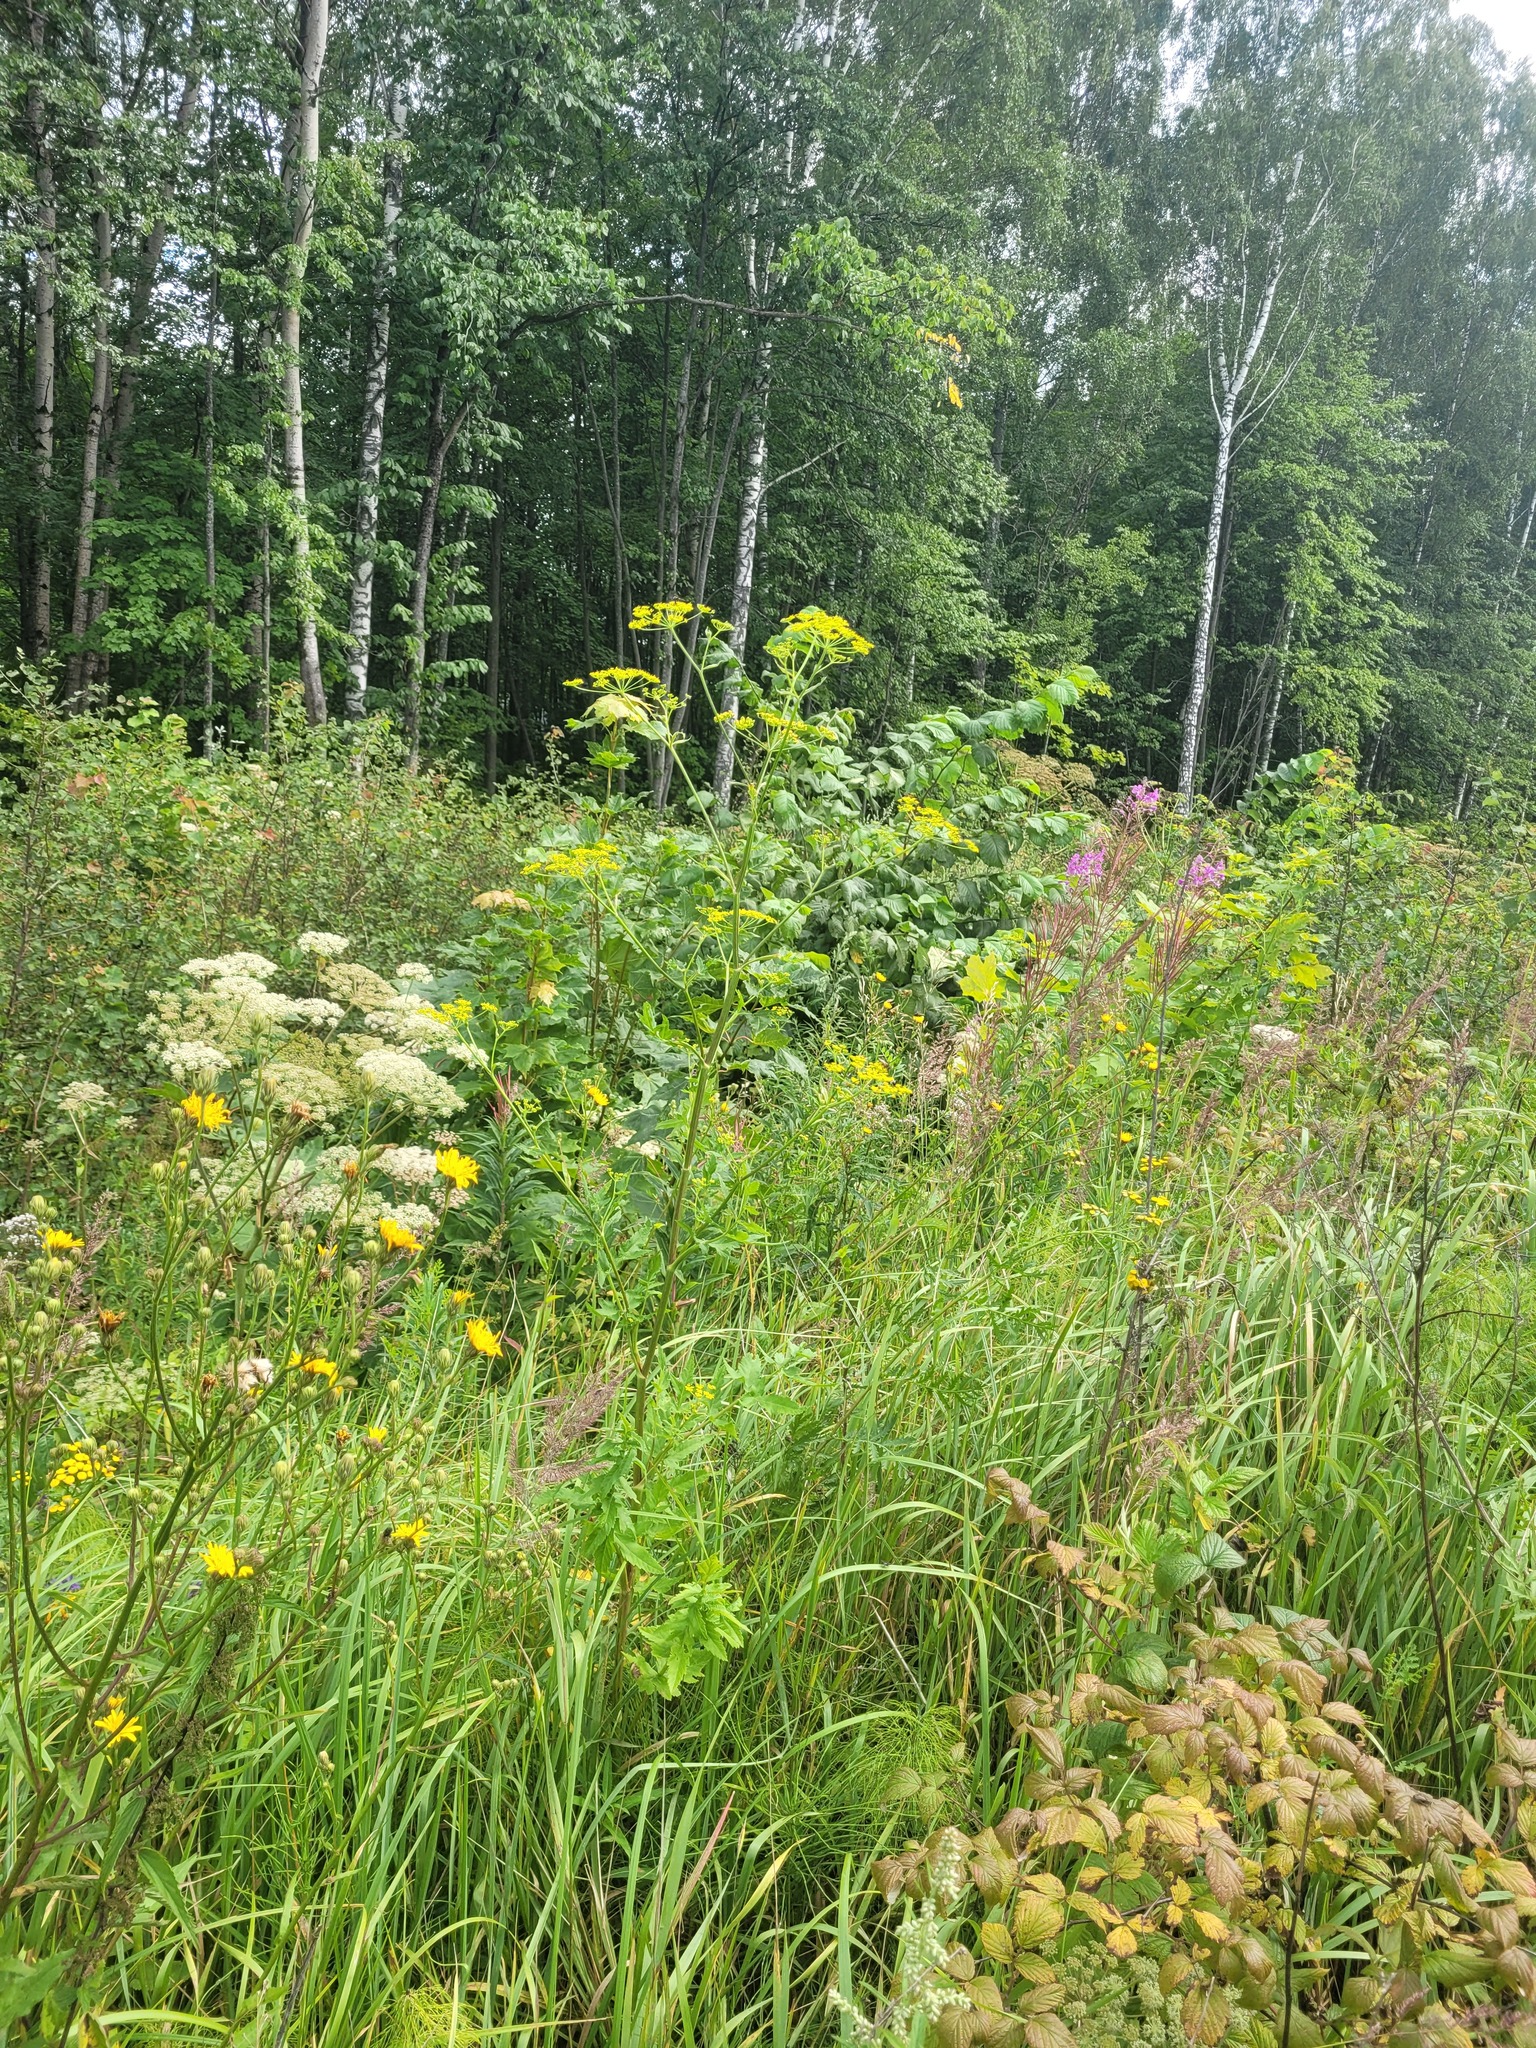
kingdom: Plantae
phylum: Tracheophyta
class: Magnoliopsida
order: Apiales
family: Apiaceae
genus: Pastinaca
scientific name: Pastinaca sativa
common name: Wild parsnip
